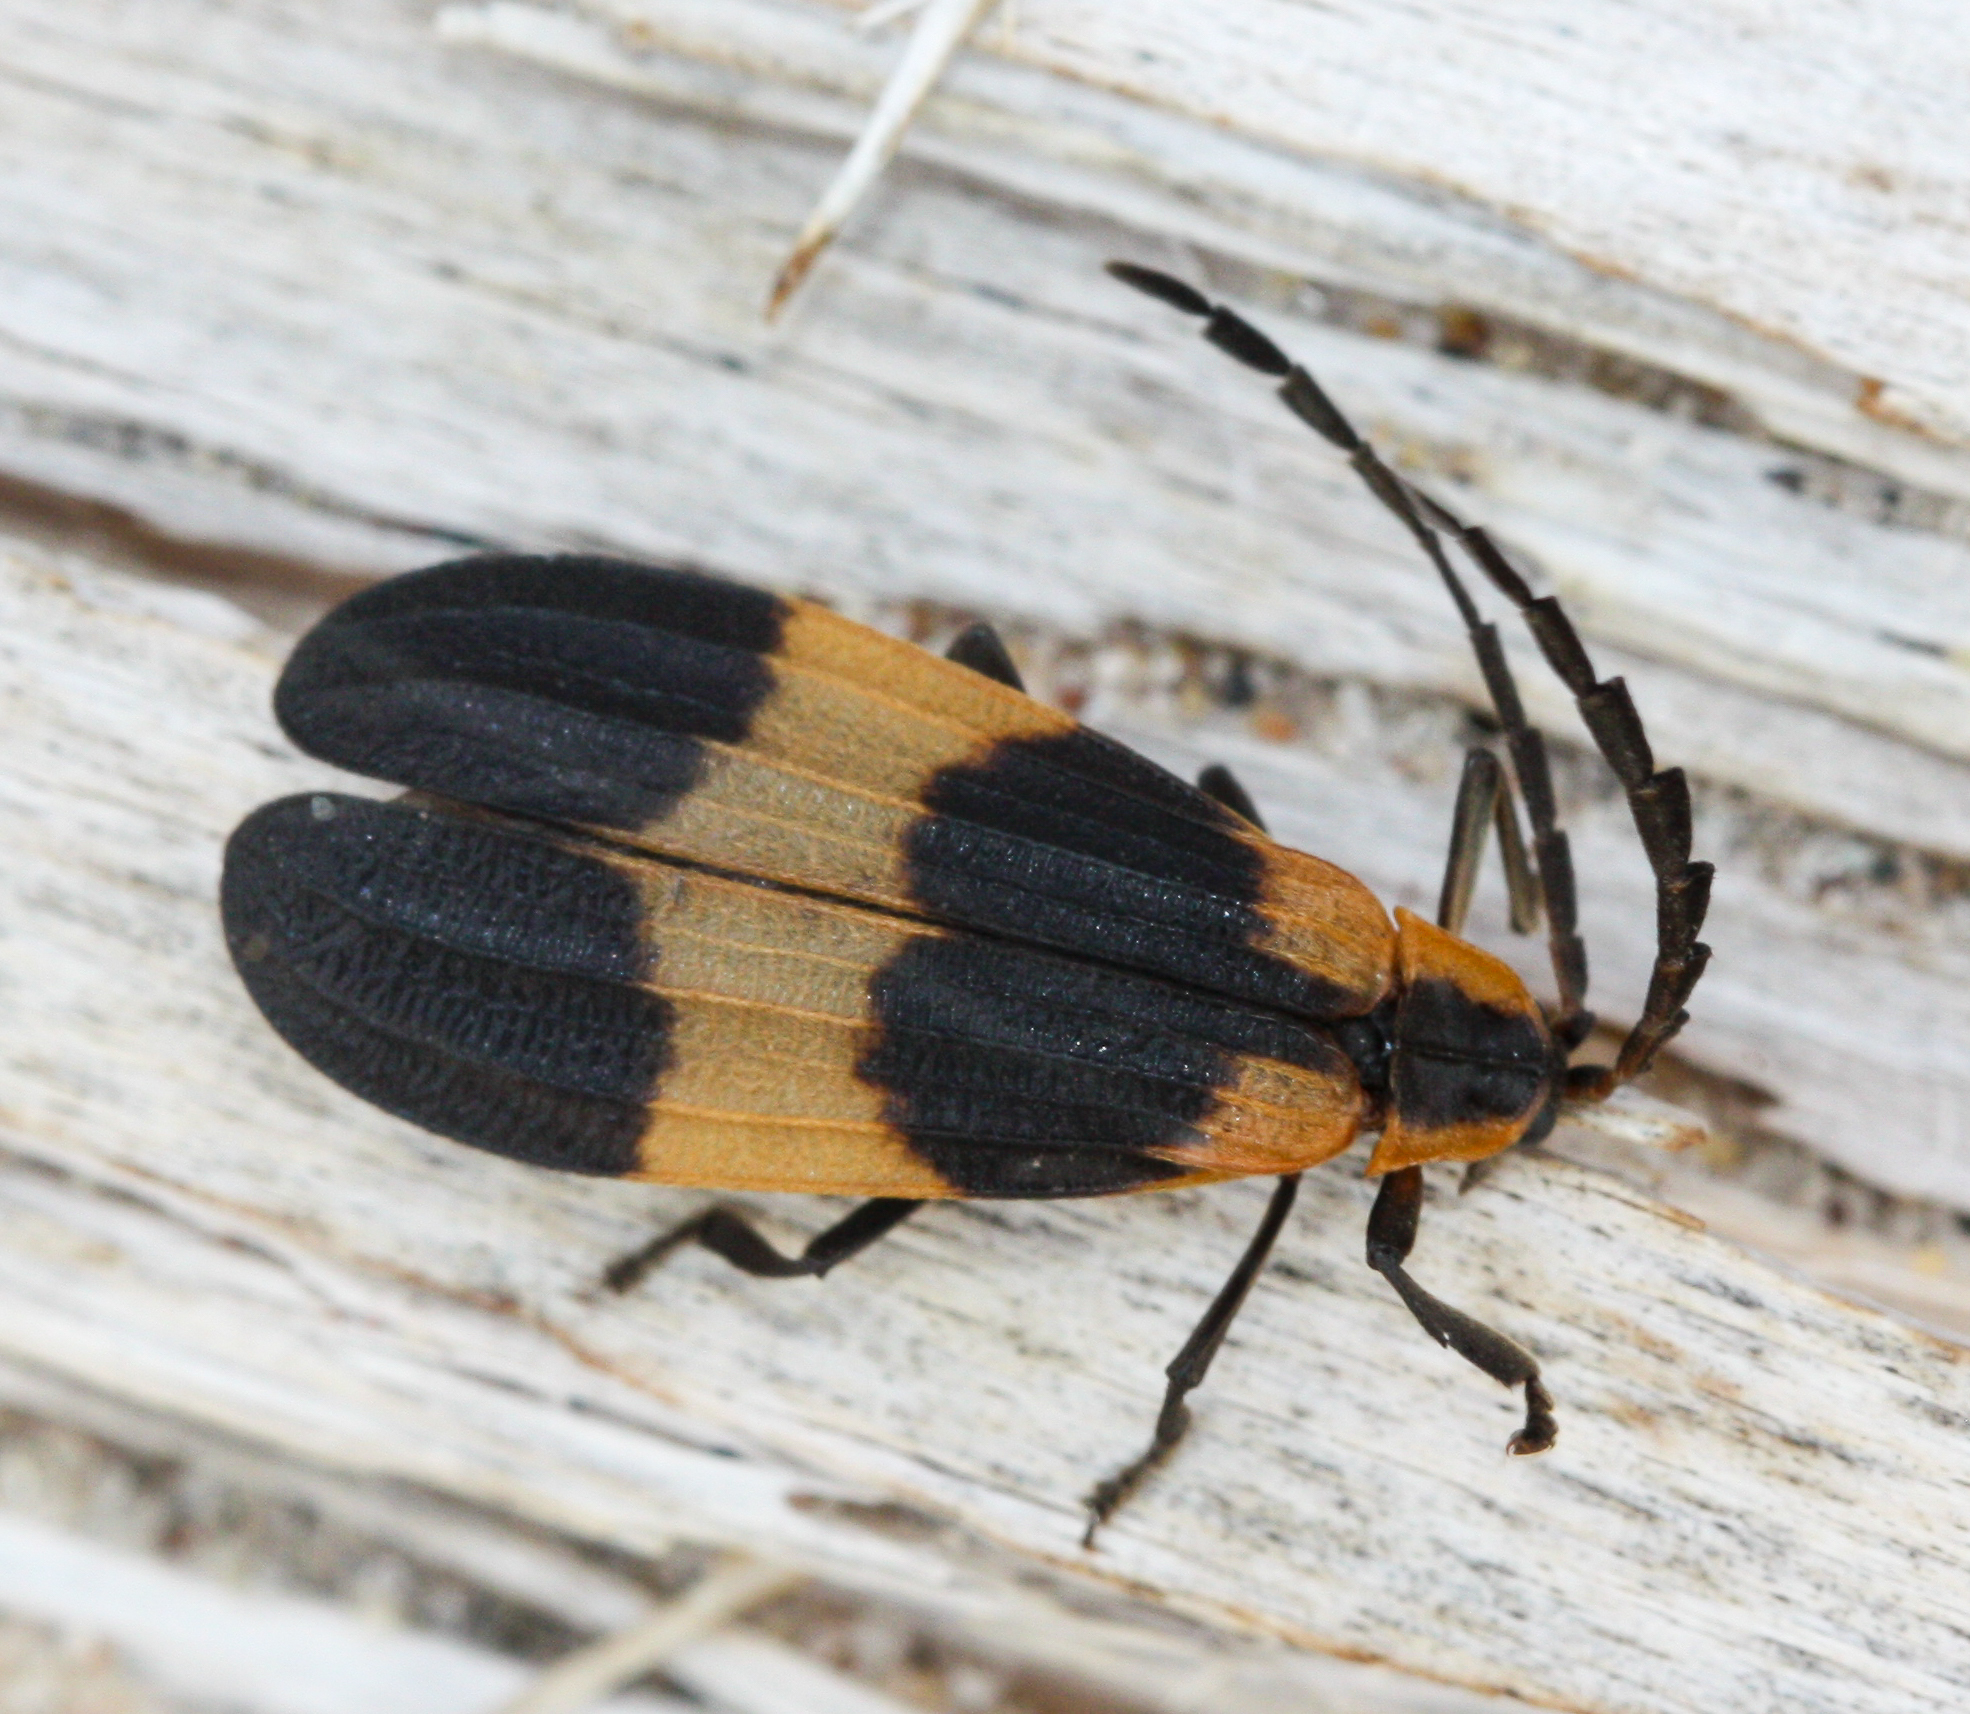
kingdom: Animalia
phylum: Arthropoda
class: Insecta
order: Coleoptera
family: Lycidae
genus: Calopteron
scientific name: Calopteron reticulatum
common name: Banded net-winged beetle
